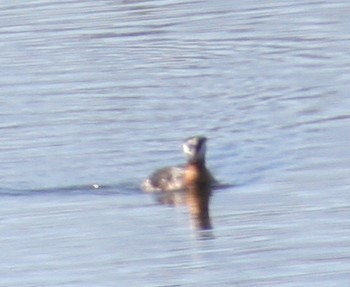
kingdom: Animalia
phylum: Chordata
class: Aves
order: Podicipediformes
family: Podicipedidae
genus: Podiceps
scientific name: Podiceps grisegena
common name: Red-necked grebe
